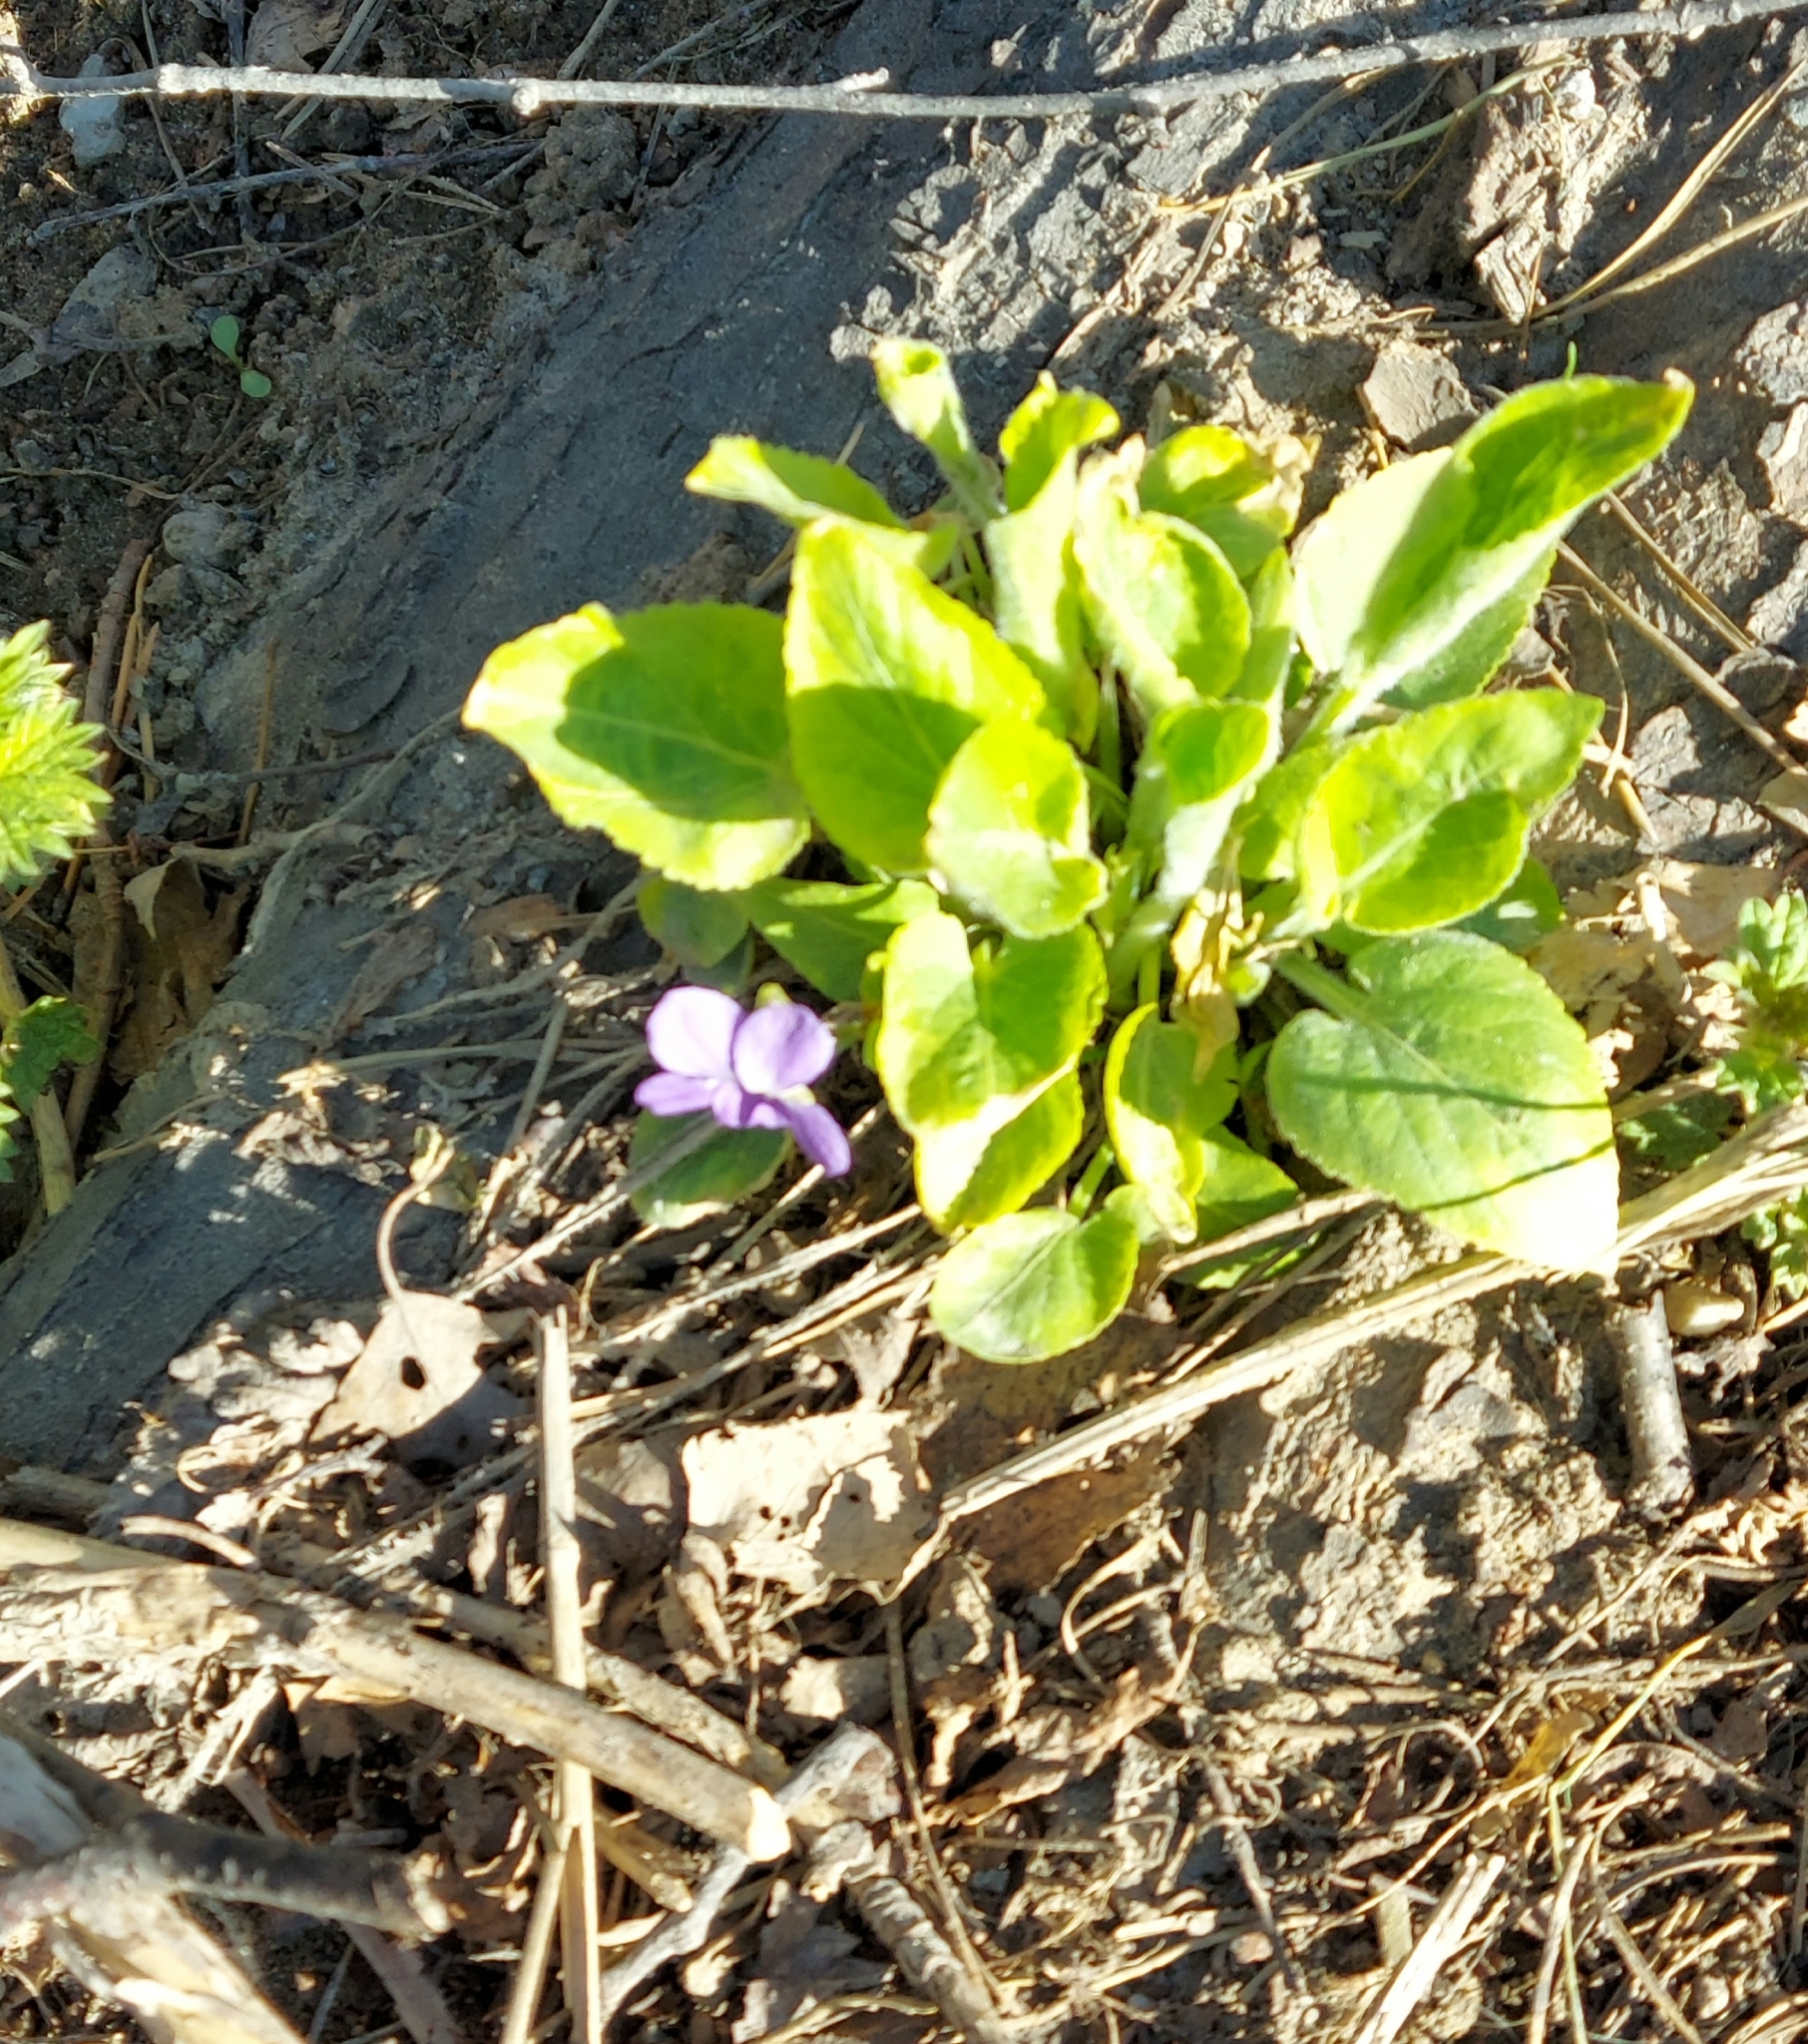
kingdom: Plantae
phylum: Tracheophyta
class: Magnoliopsida
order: Malpighiales
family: Violaceae
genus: Viola
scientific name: Viola hirta
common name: Hairy violet
